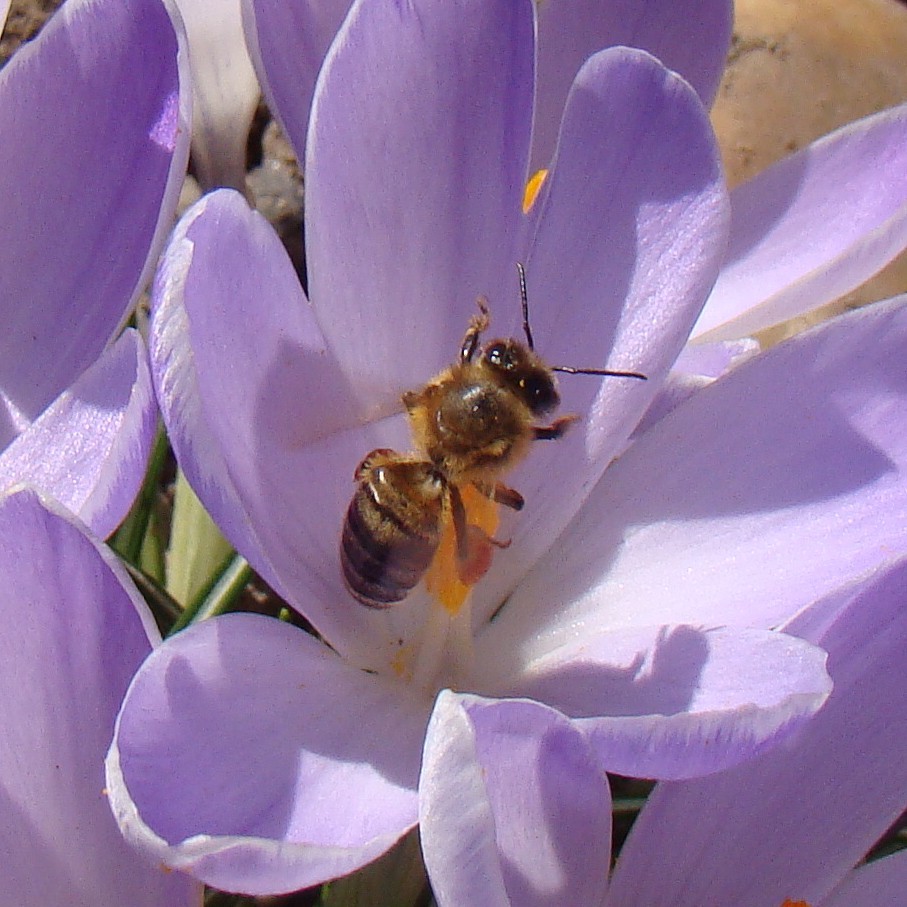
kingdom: Animalia
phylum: Arthropoda
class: Insecta
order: Hymenoptera
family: Apidae
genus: Apis
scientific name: Apis mellifera
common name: Honey bee
